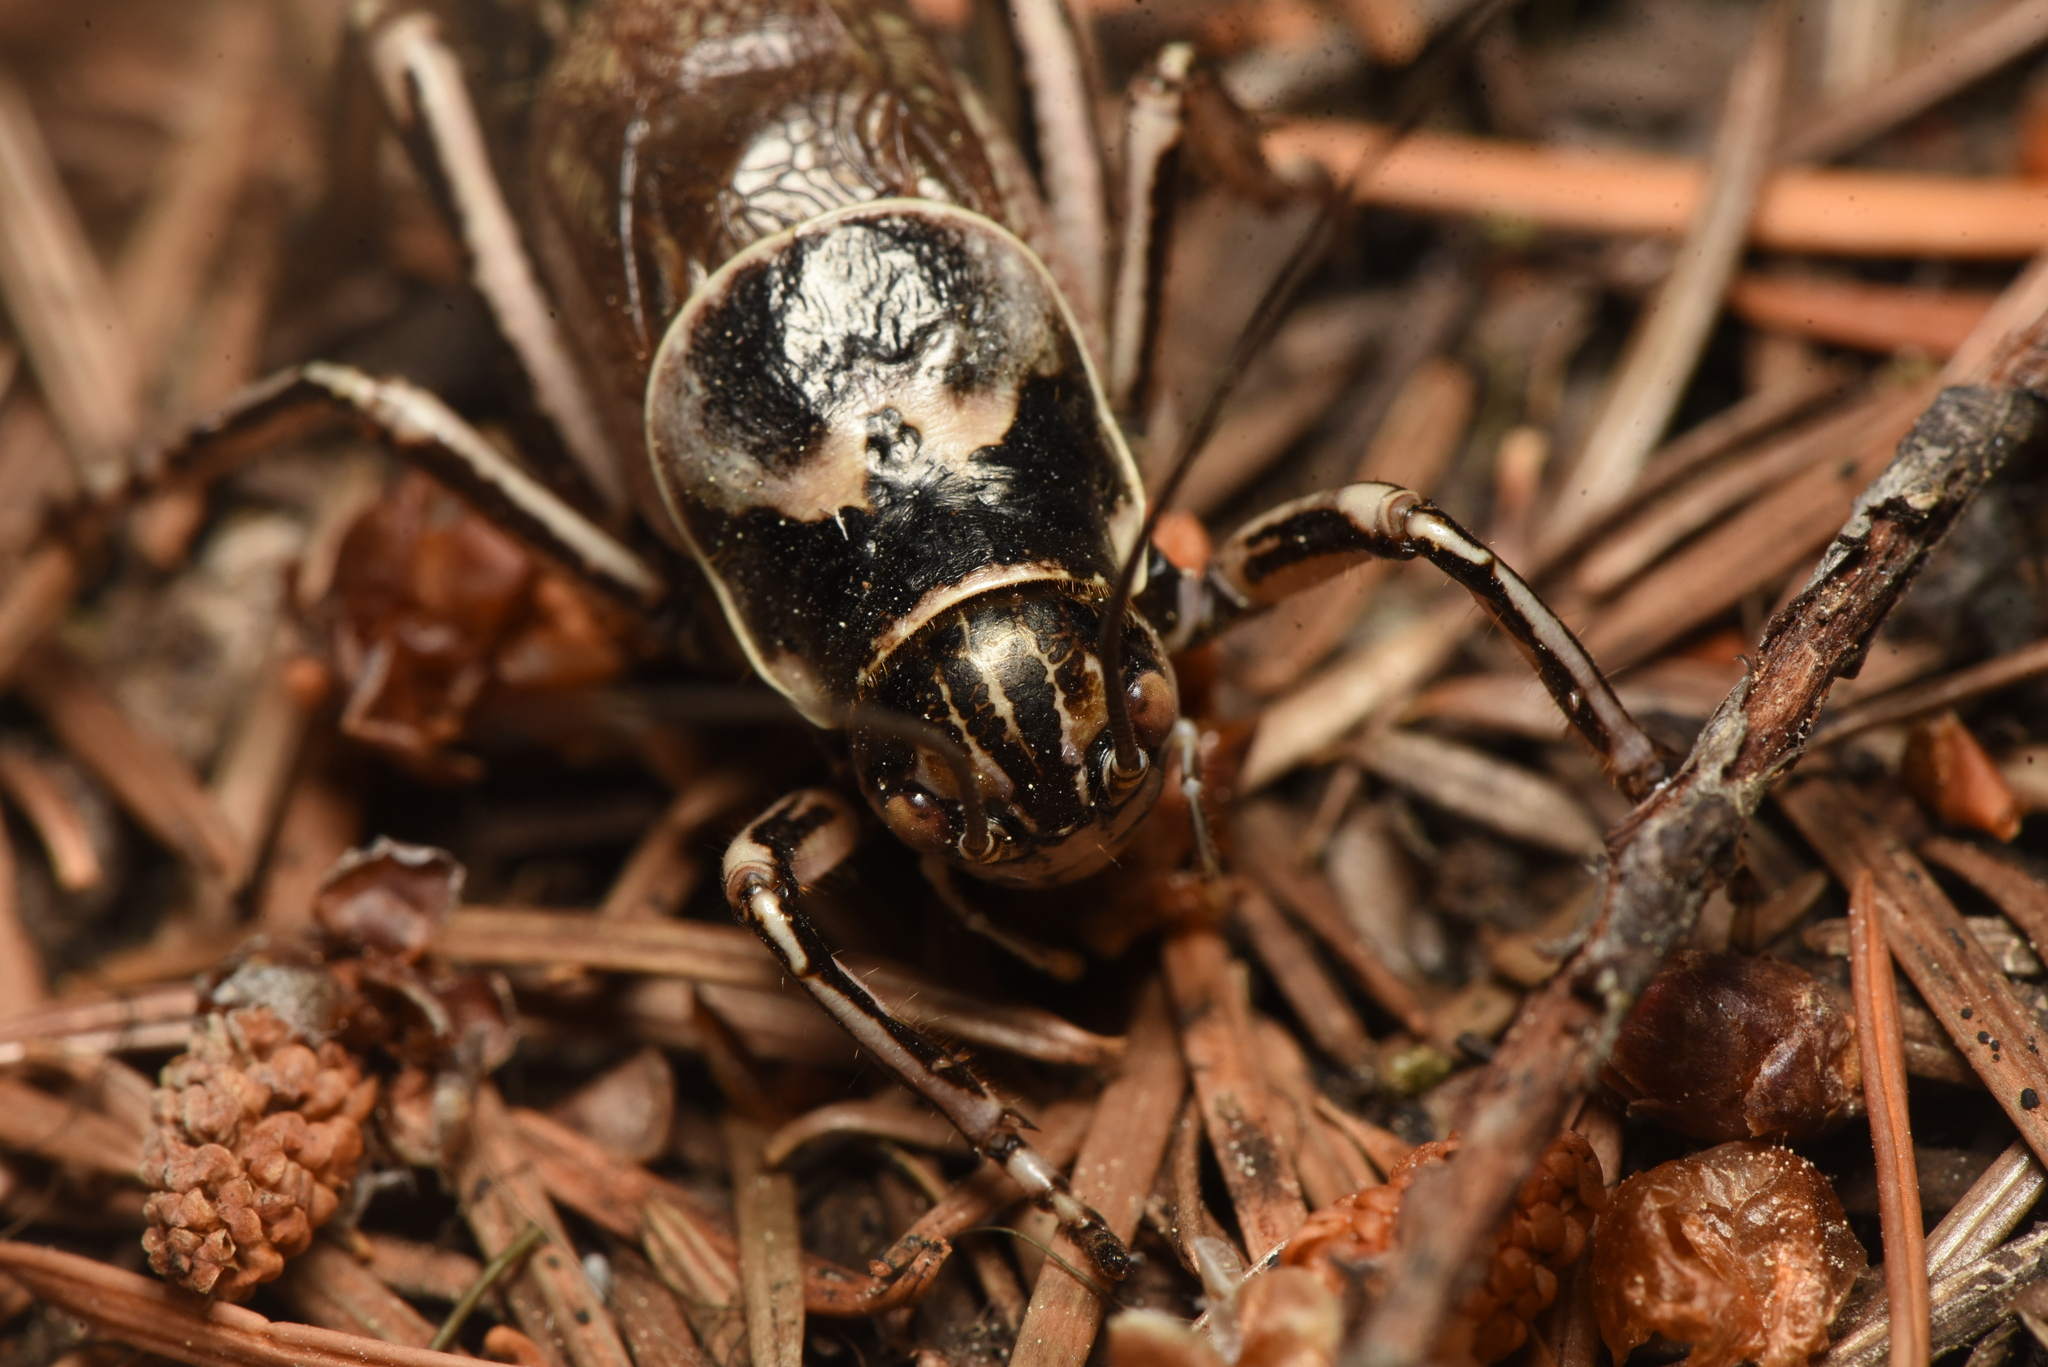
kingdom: Animalia
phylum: Arthropoda
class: Insecta
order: Orthoptera
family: Prophalangopsidae
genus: Cyphoderris
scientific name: Cyphoderris monstrosa
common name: Great grig
